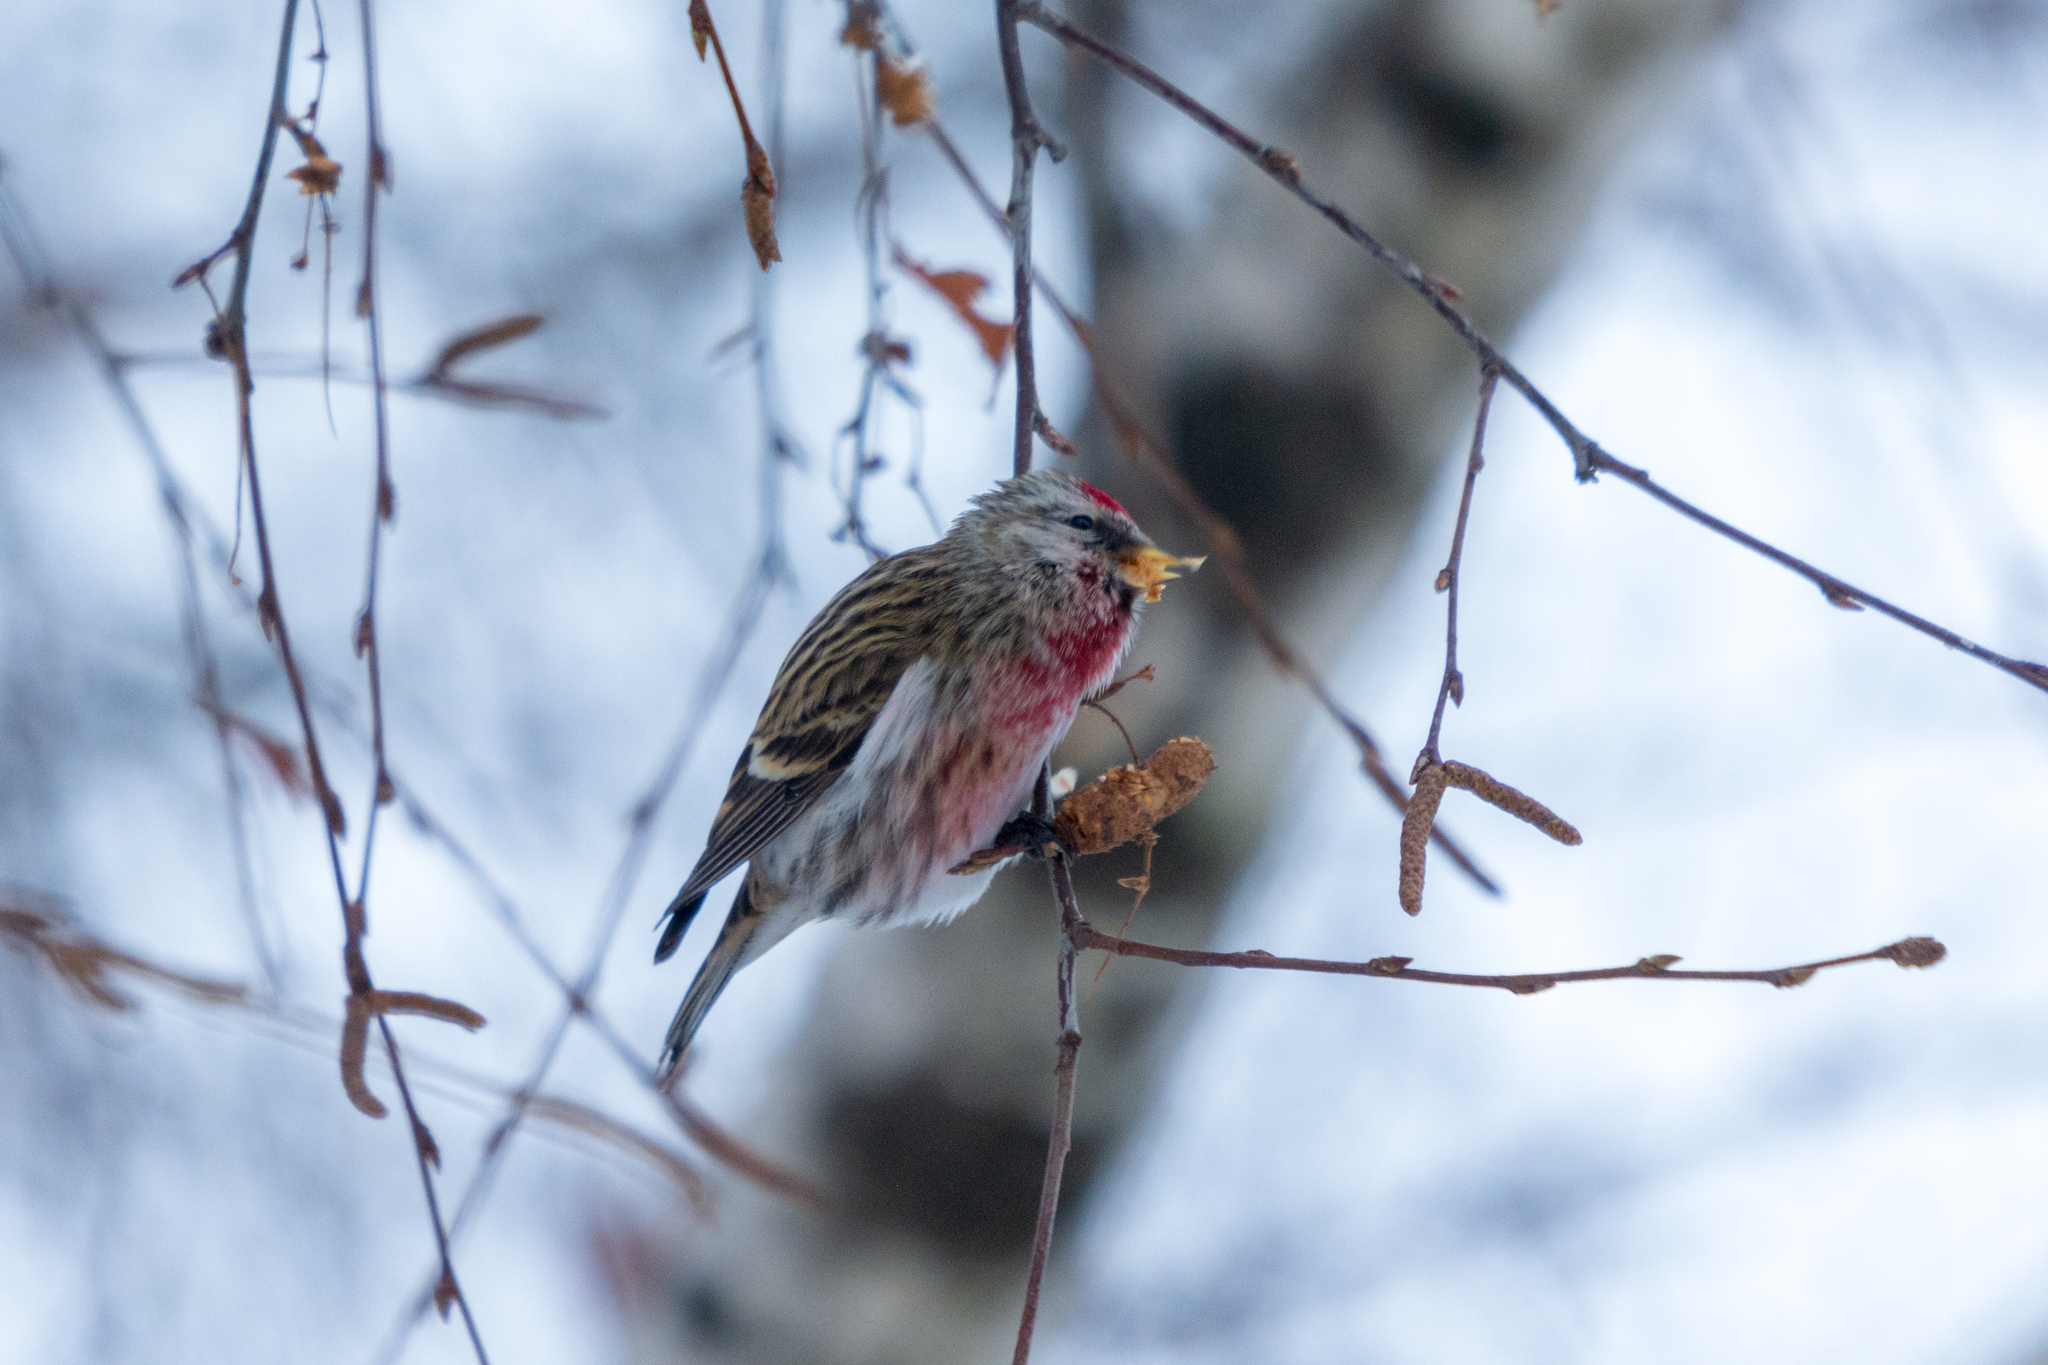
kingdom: Animalia
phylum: Chordata
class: Aves
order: Passeriformes
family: Fringillidae
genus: Acanthis
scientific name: Acanthis flammea
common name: Common redpoll
